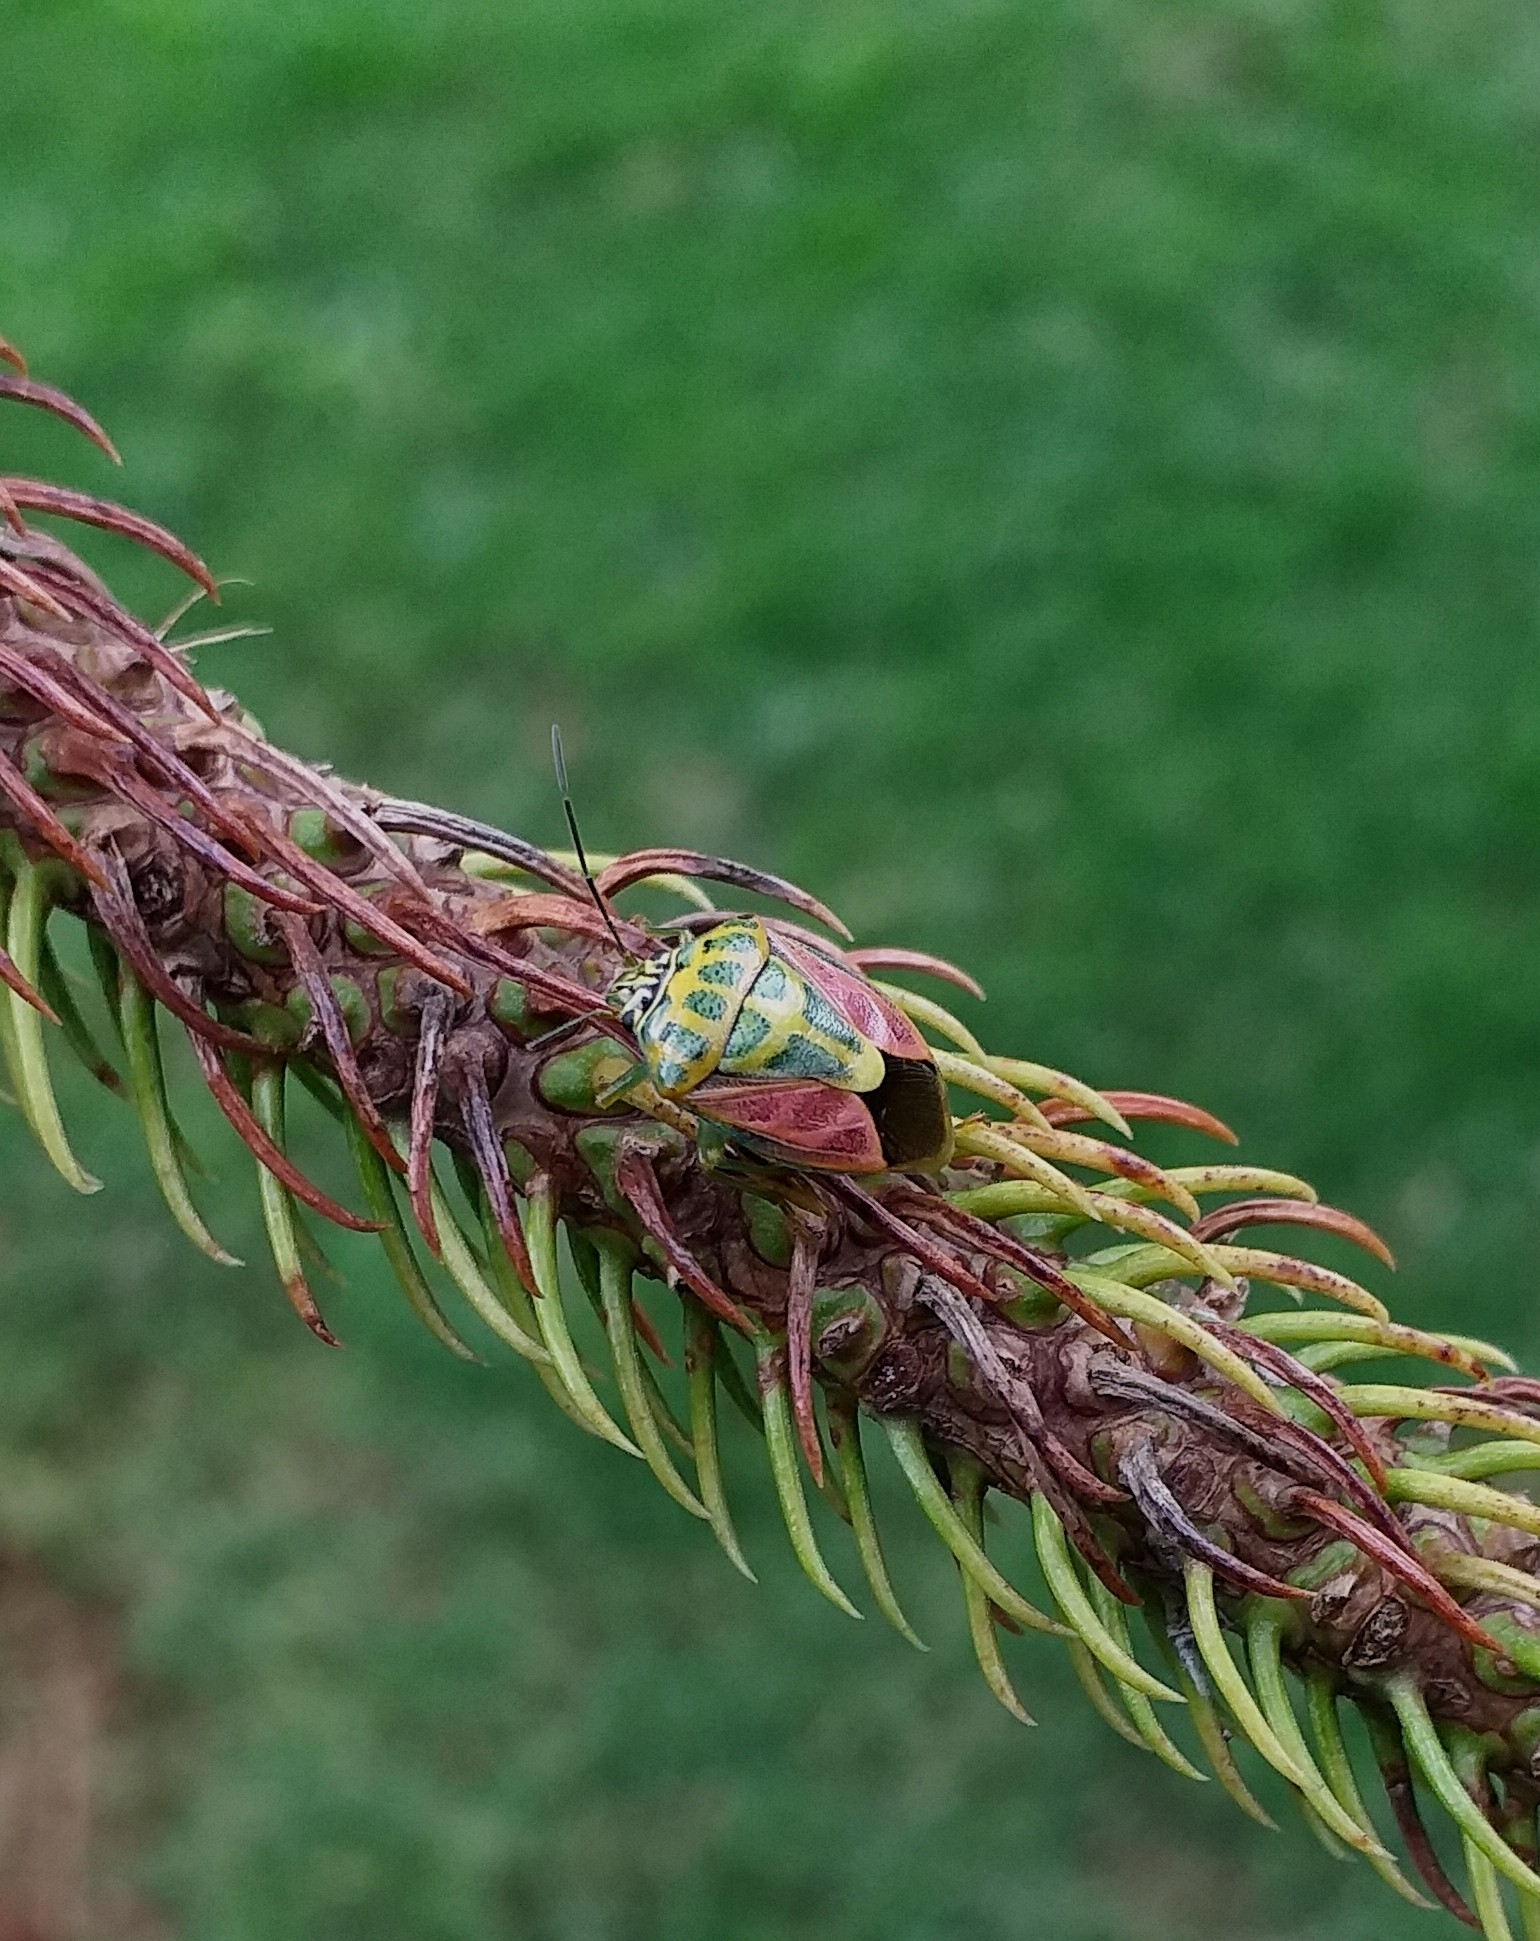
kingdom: Animalia
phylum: Arthropoda
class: Insecta
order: Hemiptera
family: Pentatomidae
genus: Antestiopsis
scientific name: Antestiopsis cruciata
